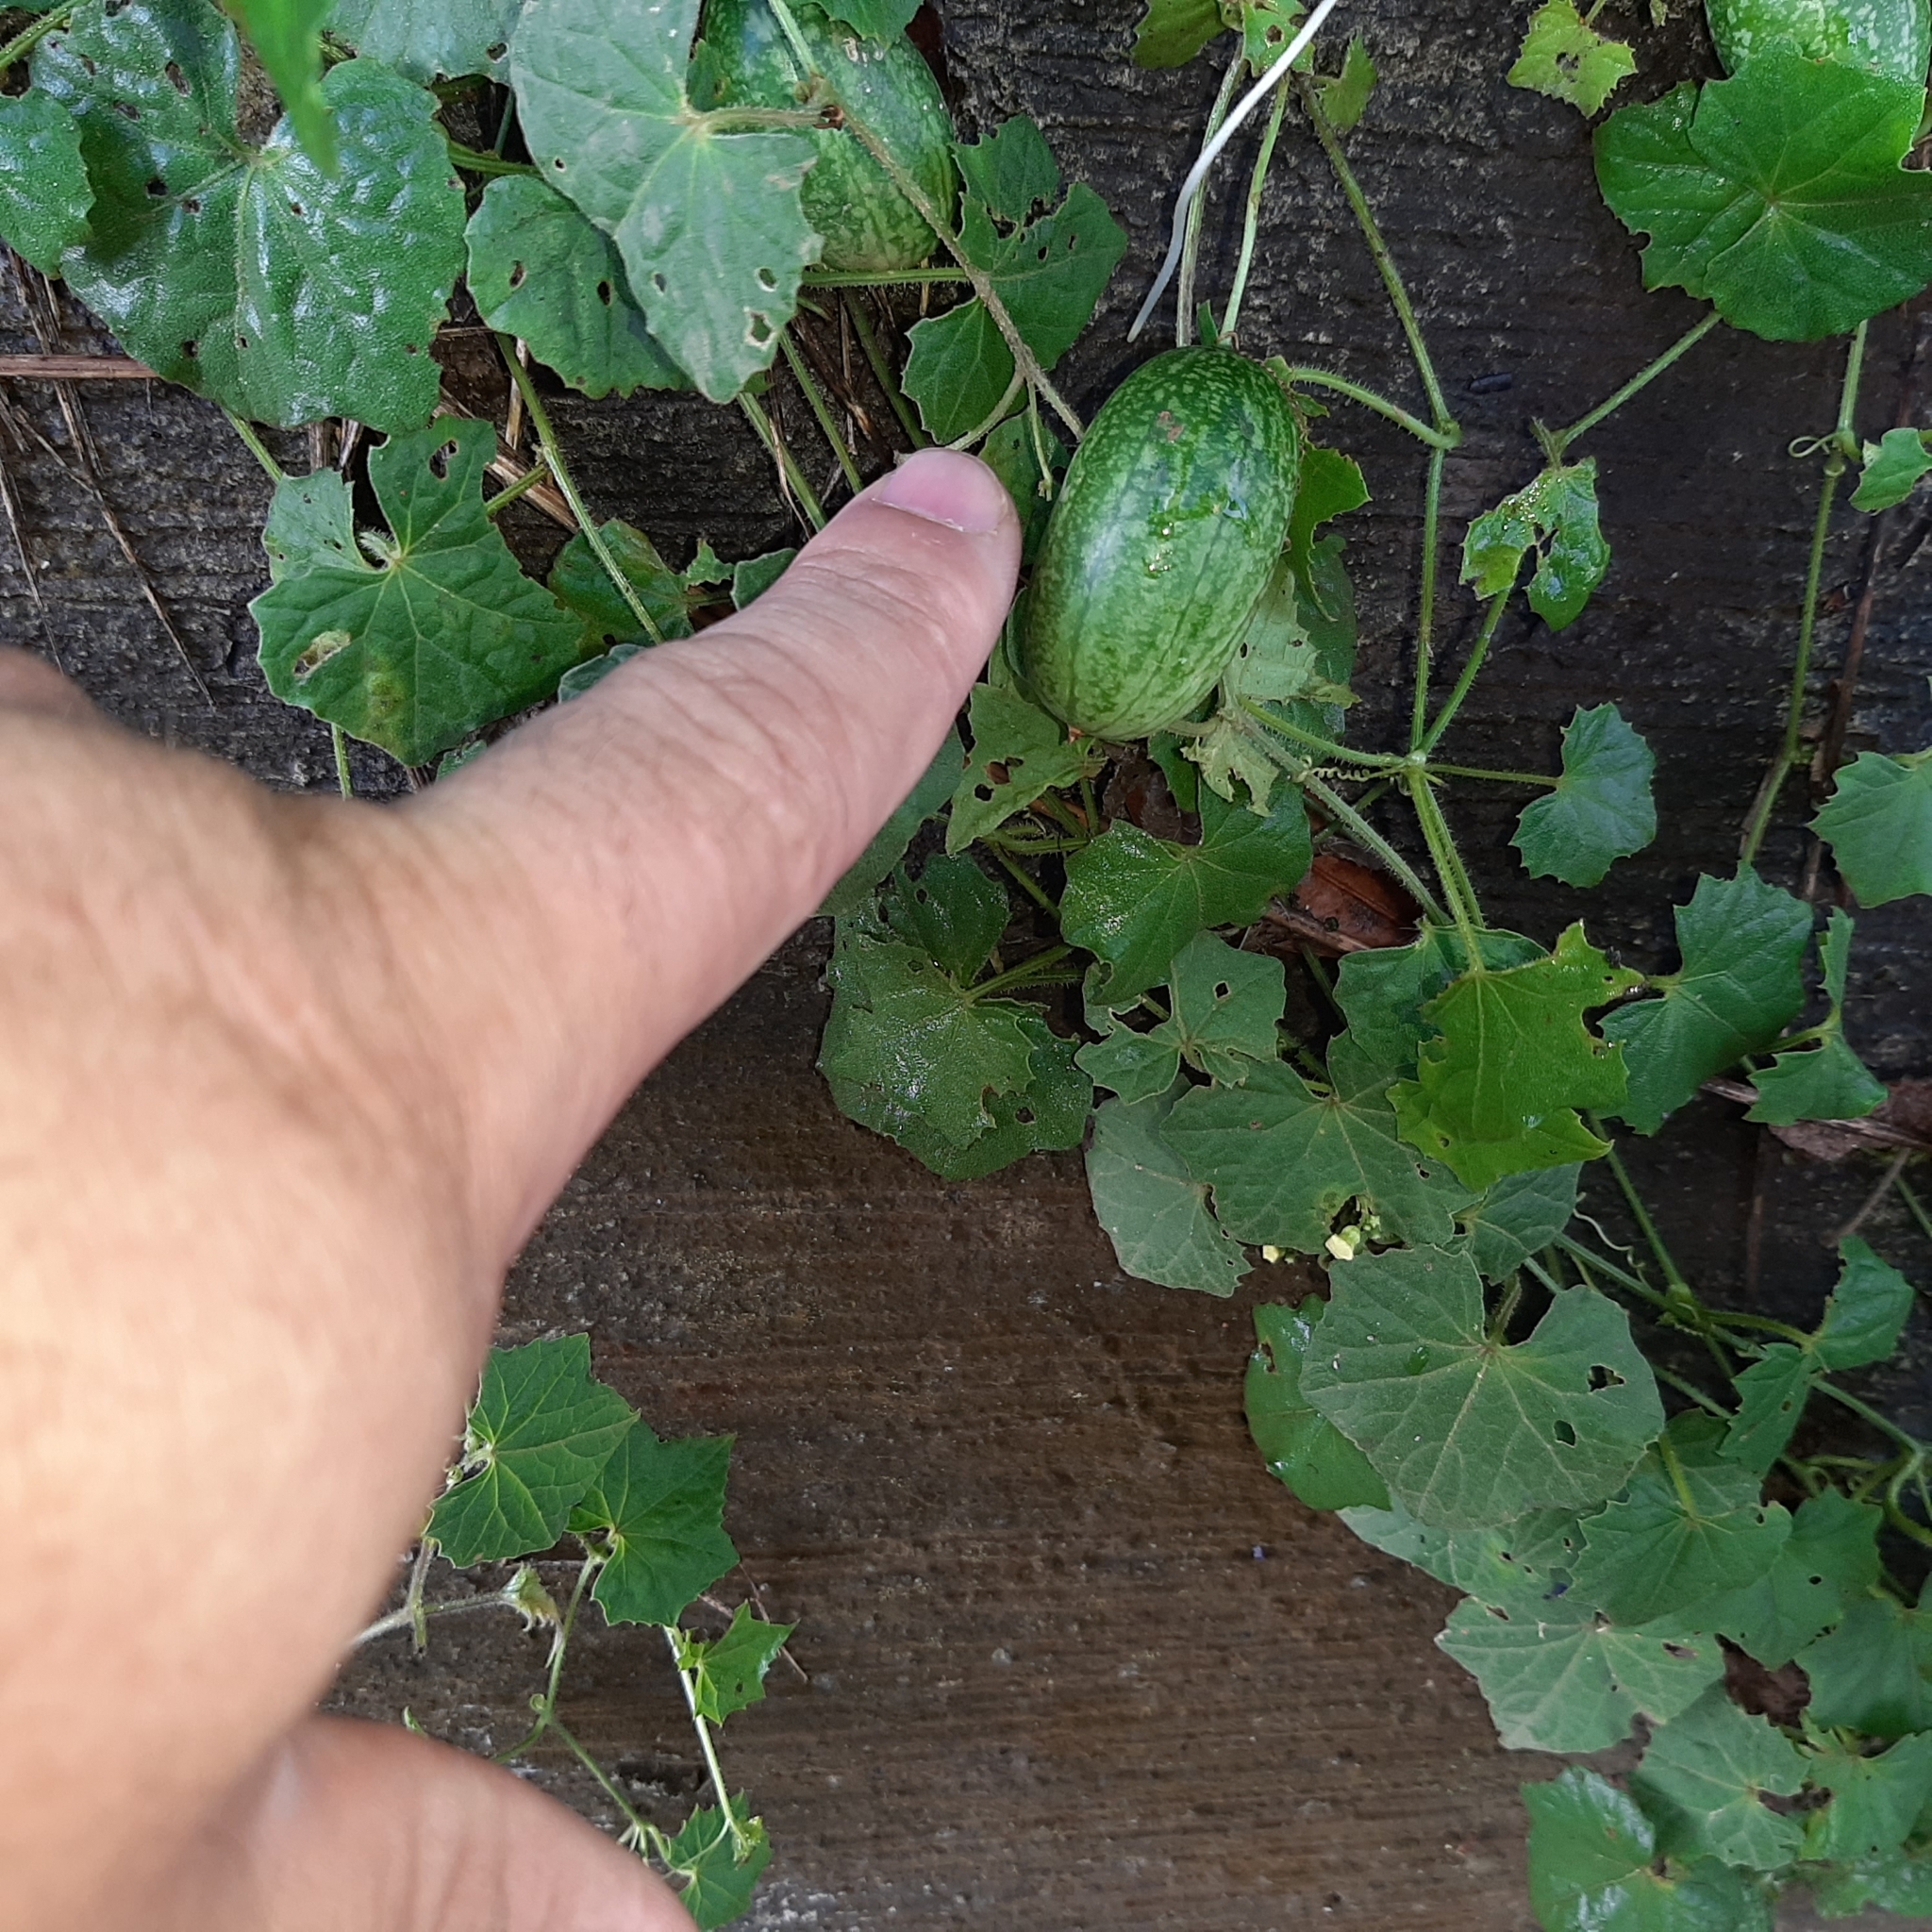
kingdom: Plantae
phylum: Tracheophyta
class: Magnoliopsida
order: Cucurbitales
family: Cucurbitaceae
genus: Melothria
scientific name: Melothria pendula
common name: Creeping-cucumber
